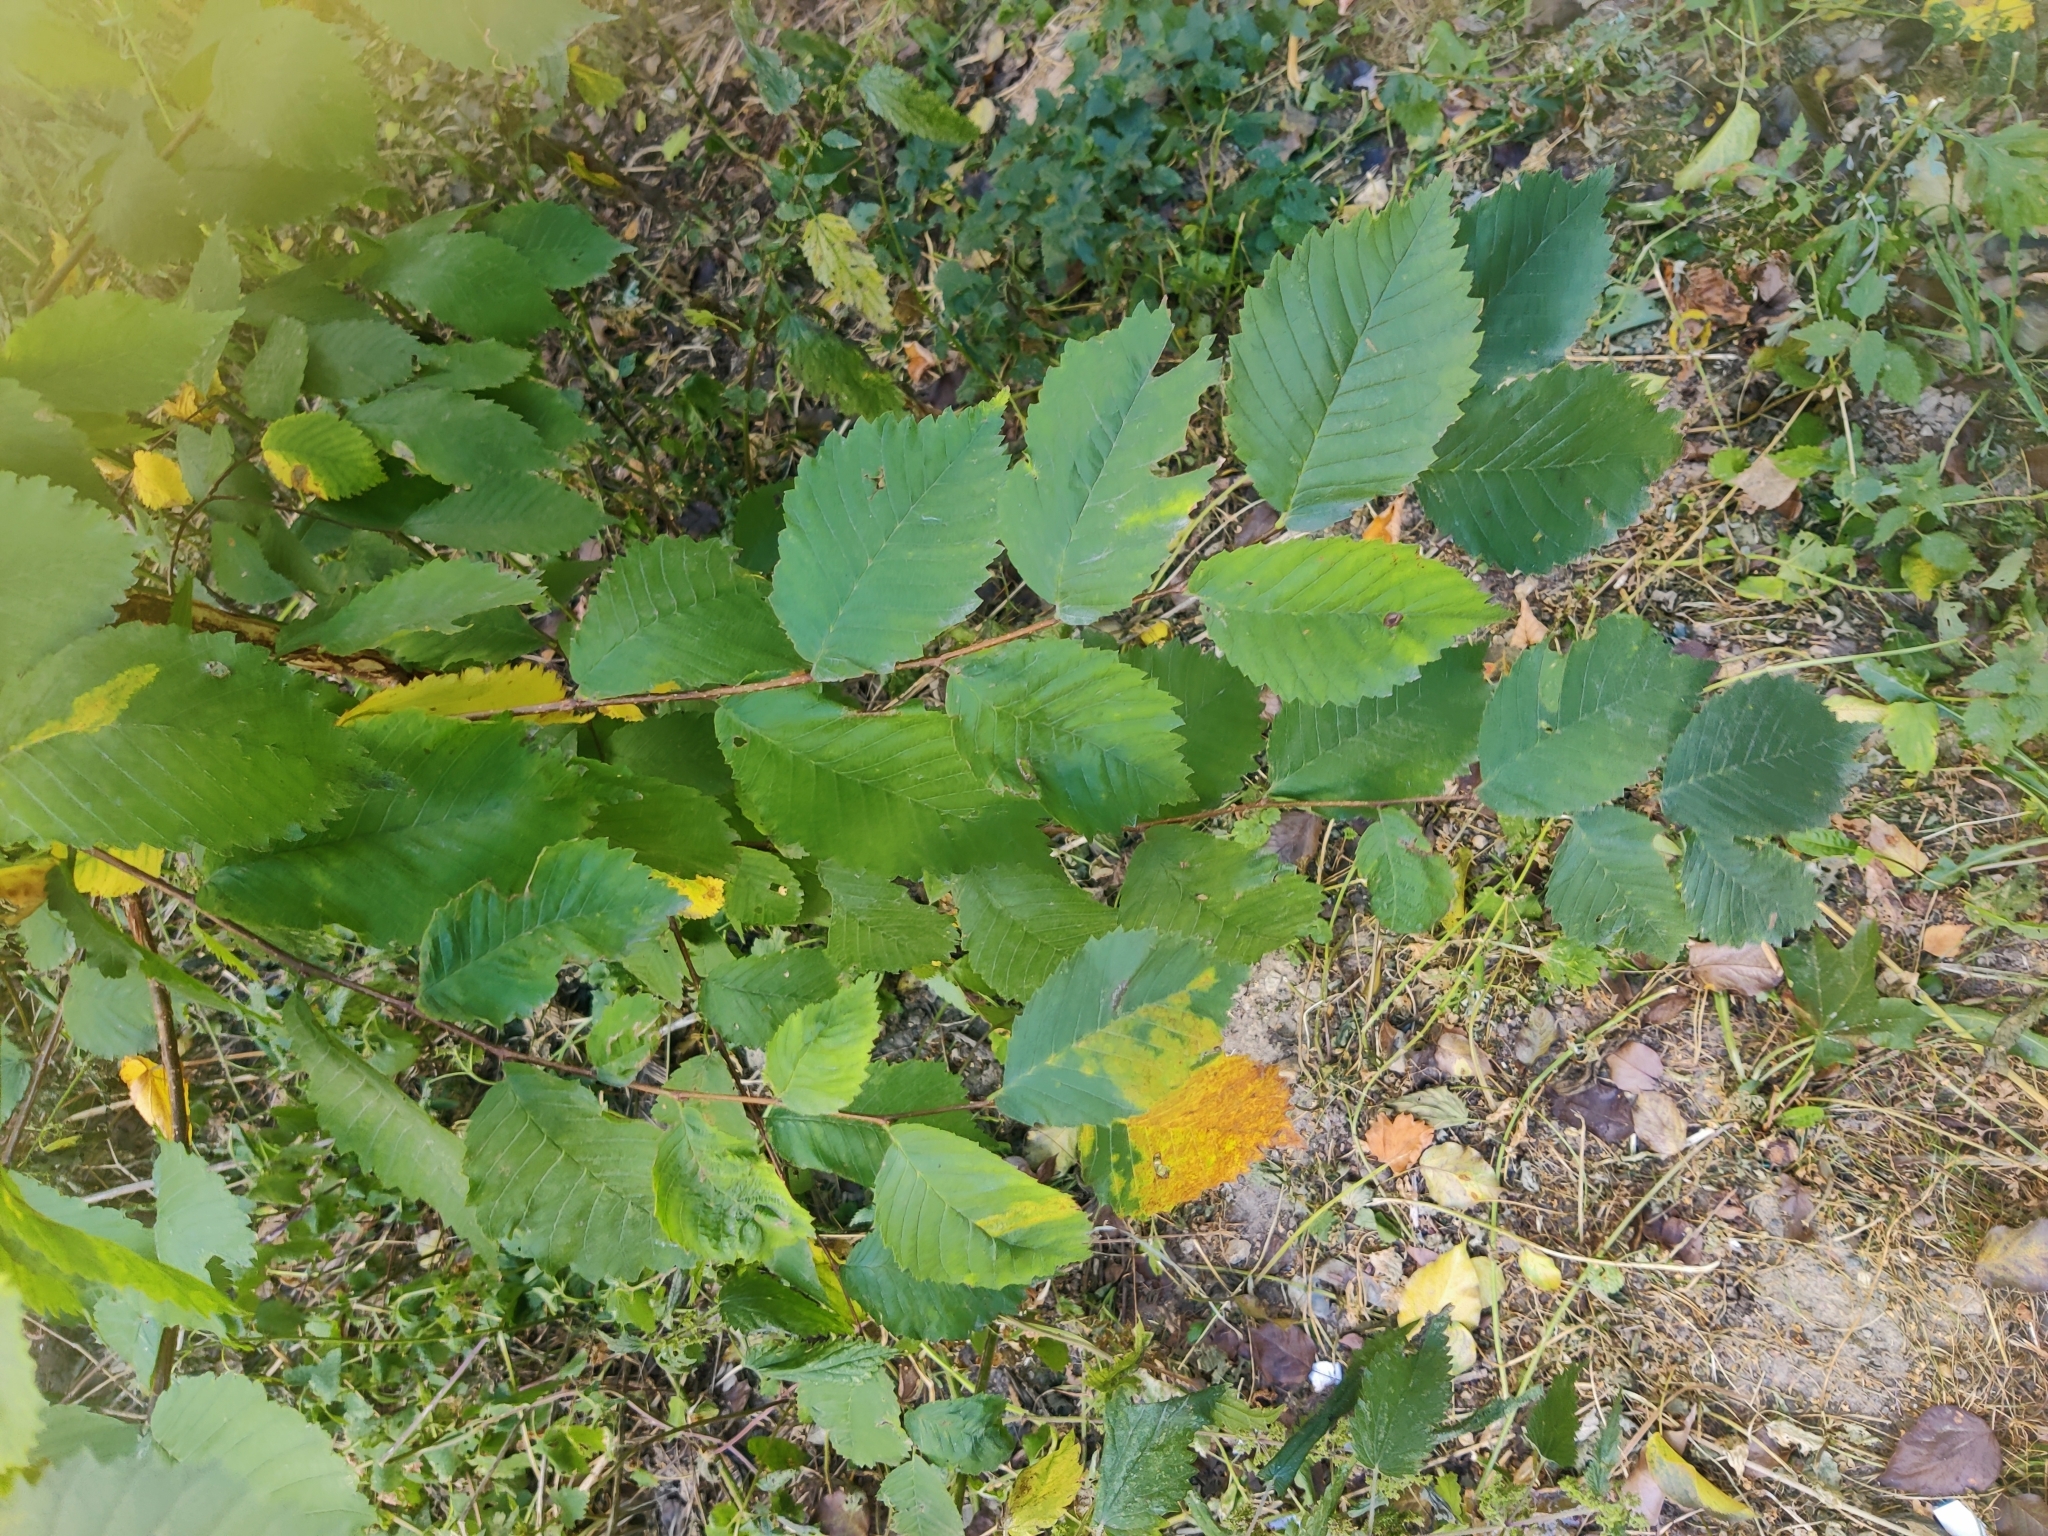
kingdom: Plantae
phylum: Tracheophyta
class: Magnoliopsida
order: Rosales
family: Ulmaceae
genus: Ulmus
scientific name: Ulmus laevis
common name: European white-elm
